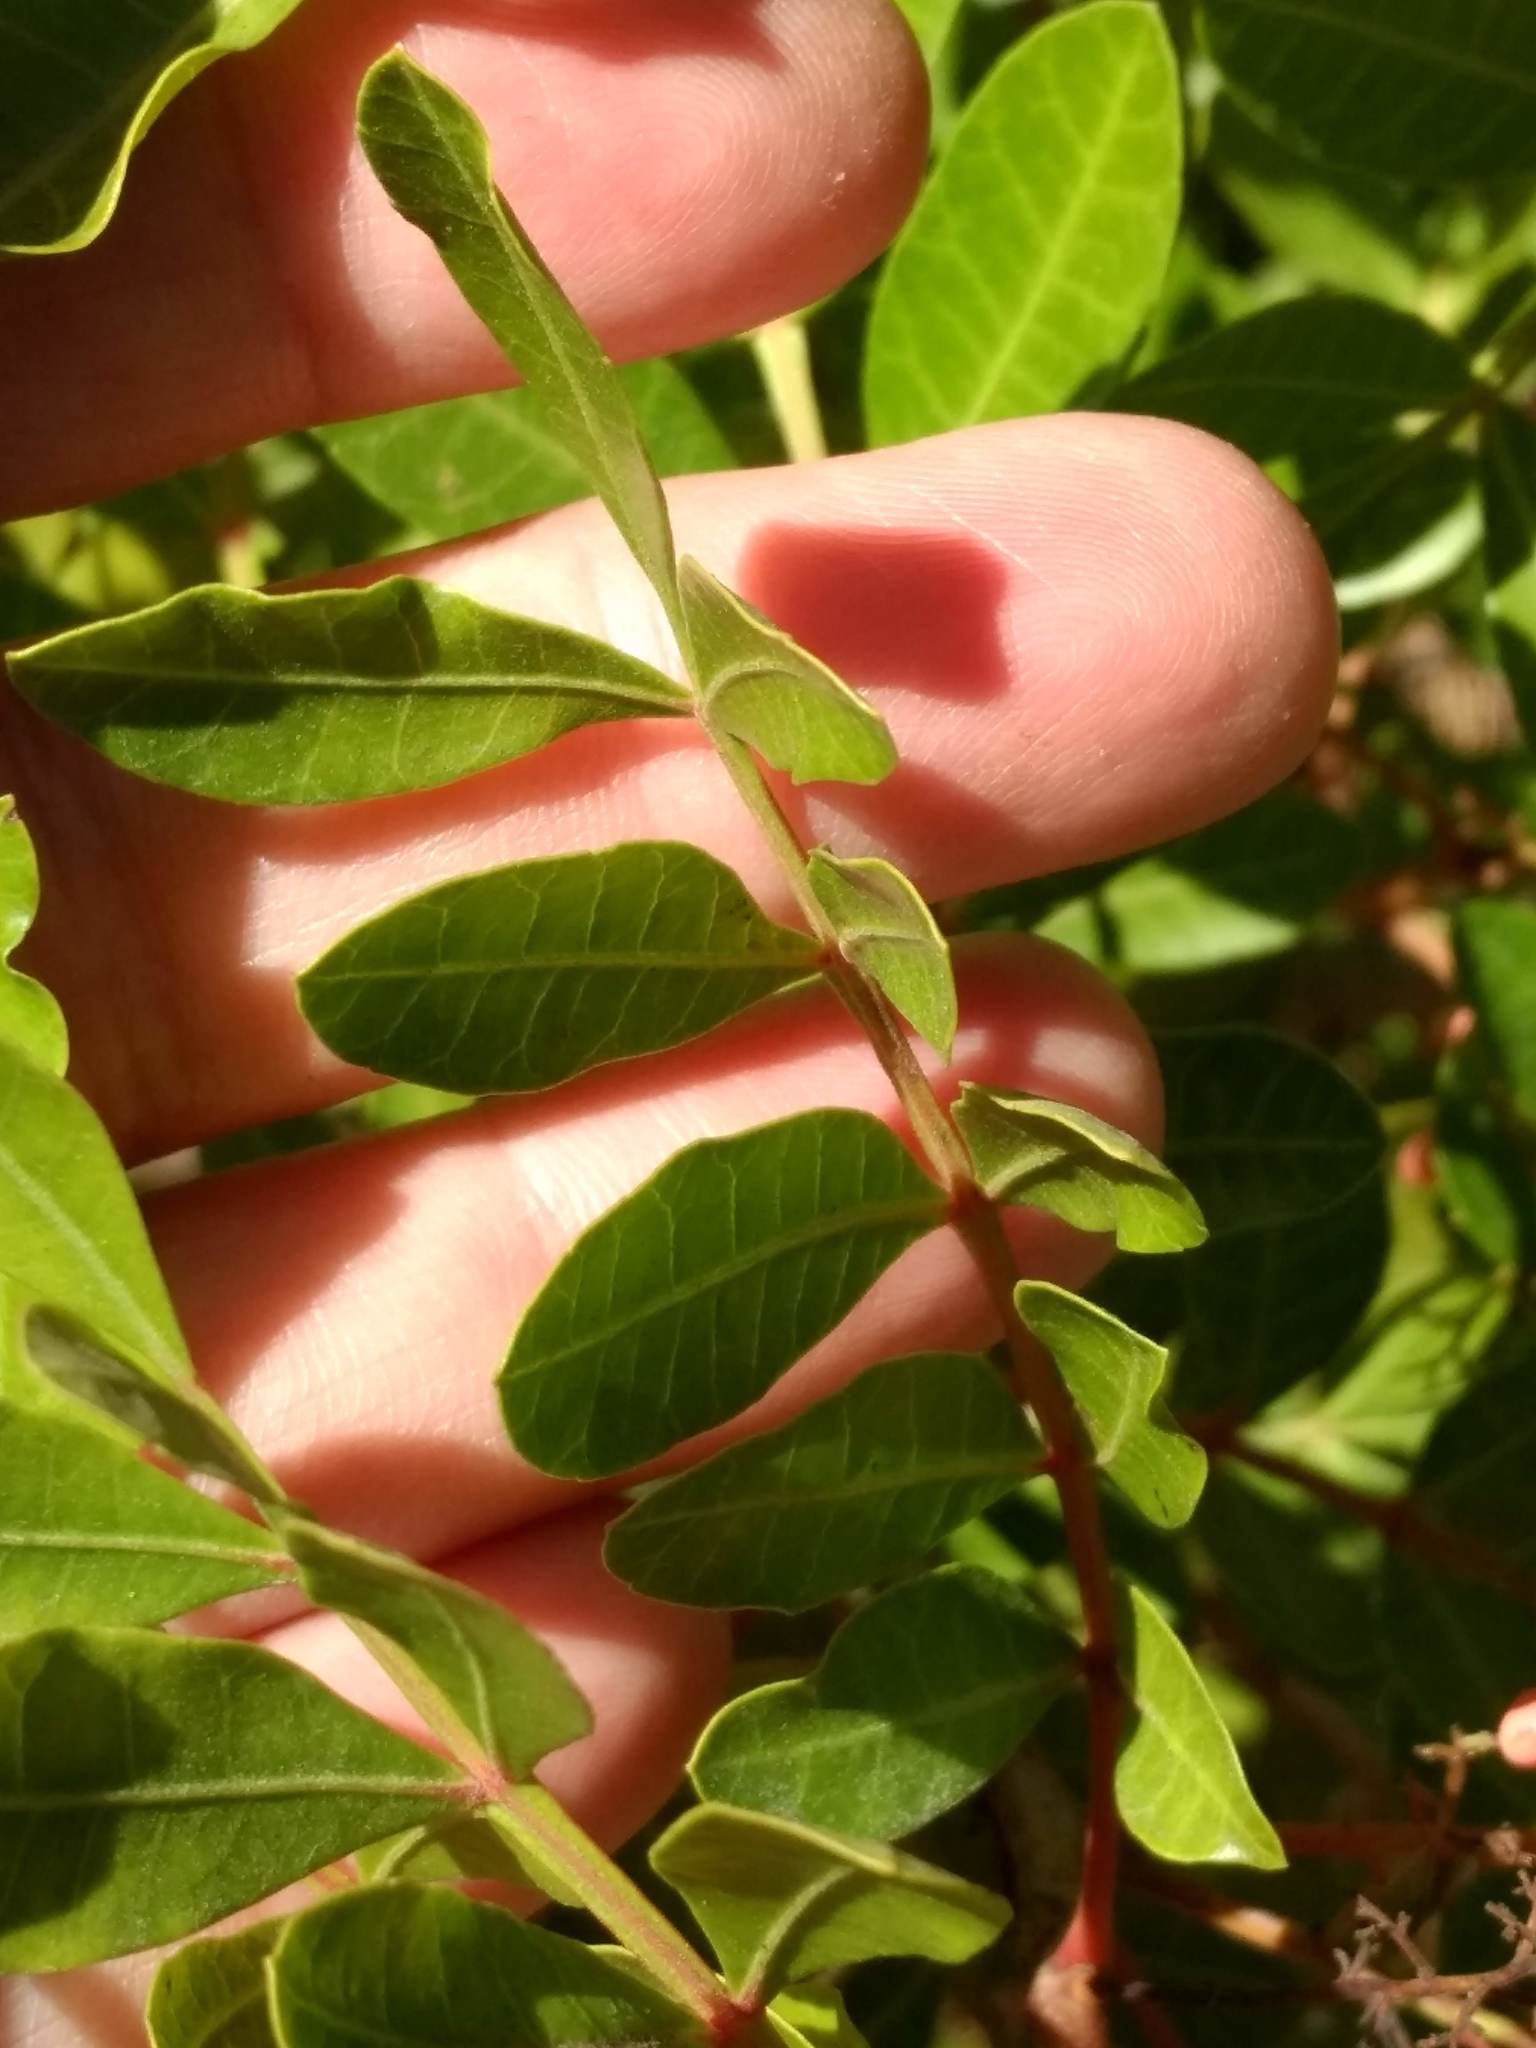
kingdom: Plantae
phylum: Tracheophyta
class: Magnoliopsida
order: Sapindales
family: Anacardiaceae
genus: Schinus
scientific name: Schinus terebinthifolia
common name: Brazilian peppertree
